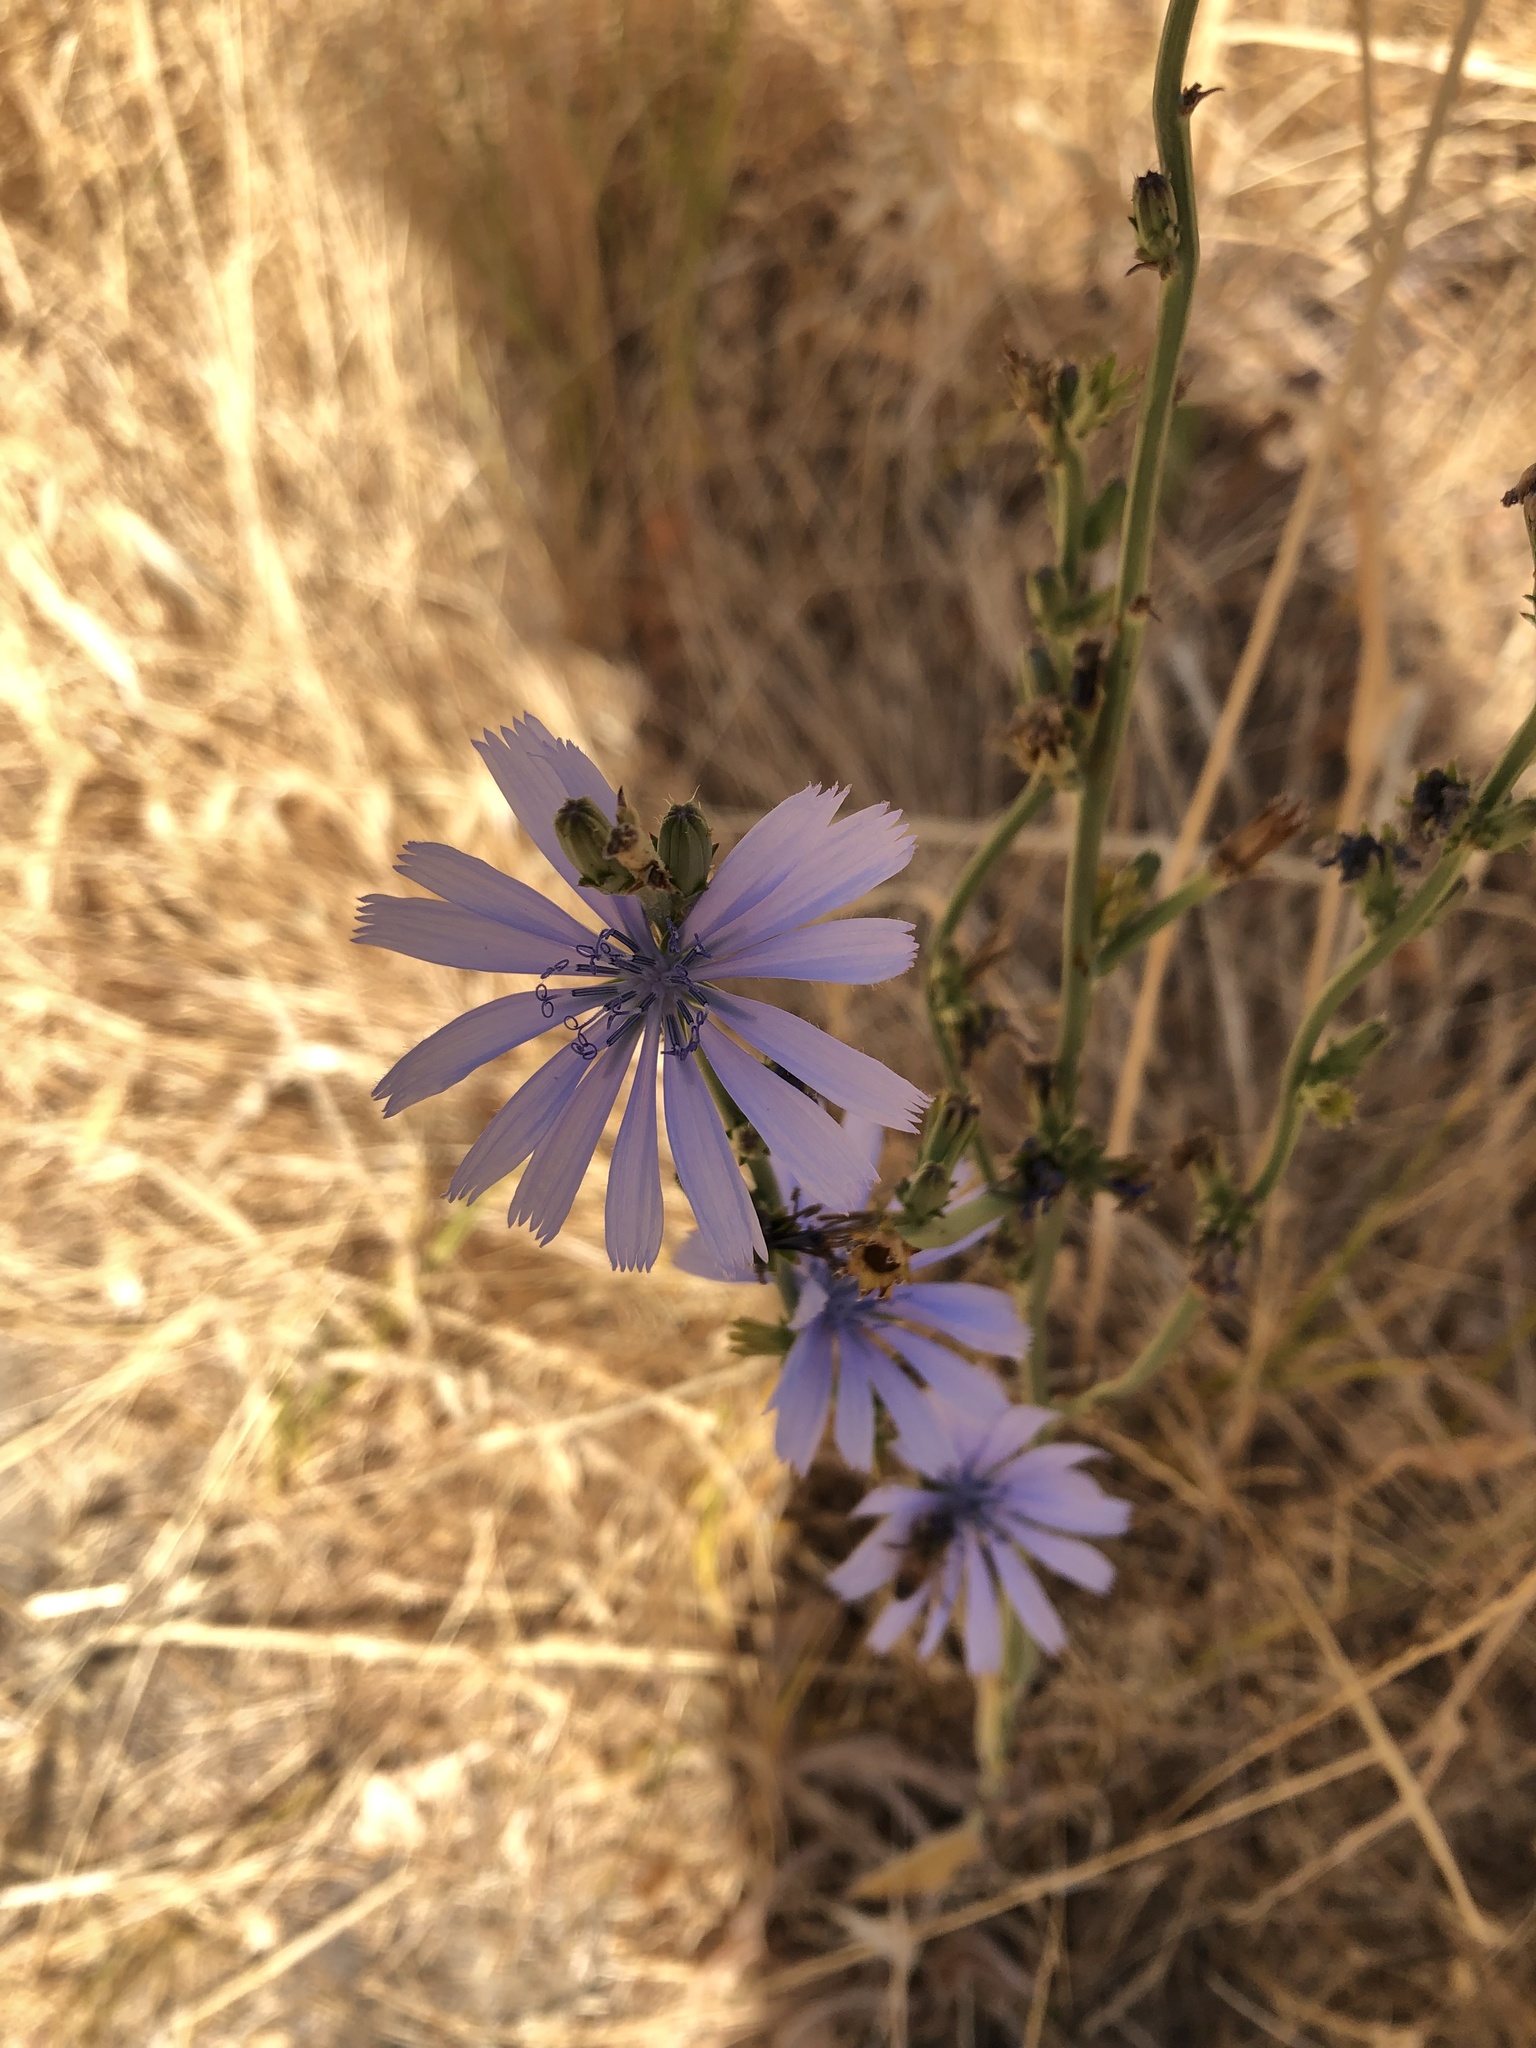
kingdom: Plantae
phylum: Tracheophyta
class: Magnoliopsida
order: Asterales
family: Asteraceae
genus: Cichorium
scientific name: Cichorium intybus
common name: Chicory
